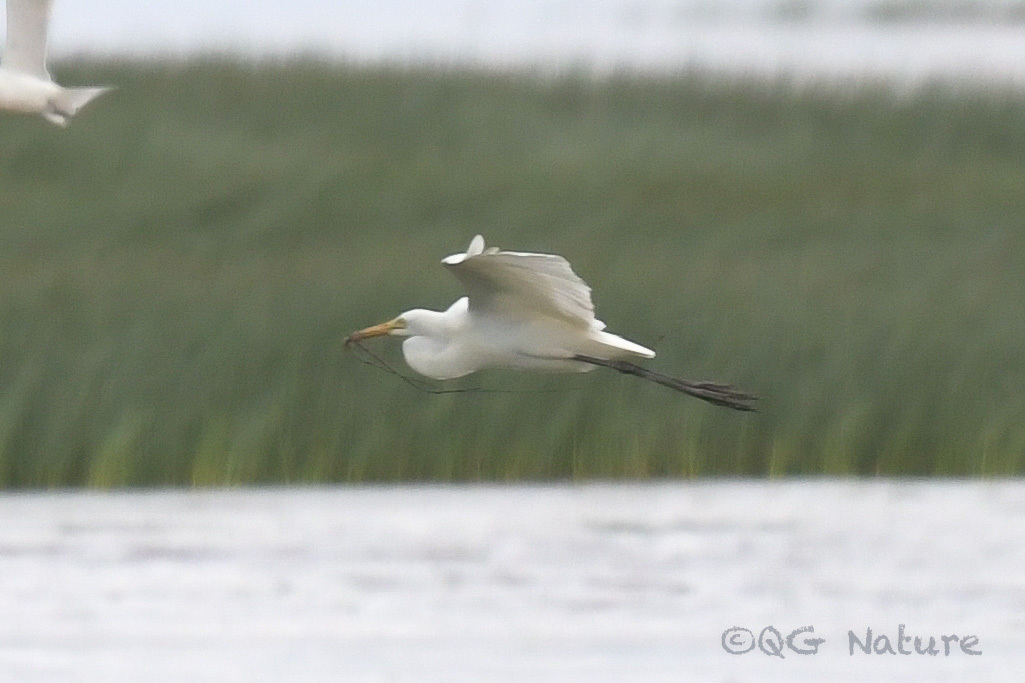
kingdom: Animalia
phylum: Chordata
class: Aves
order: Pelecaniformes
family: Ardeidae
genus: Egretta
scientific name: Egretta intermedia
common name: Intermediate egret
